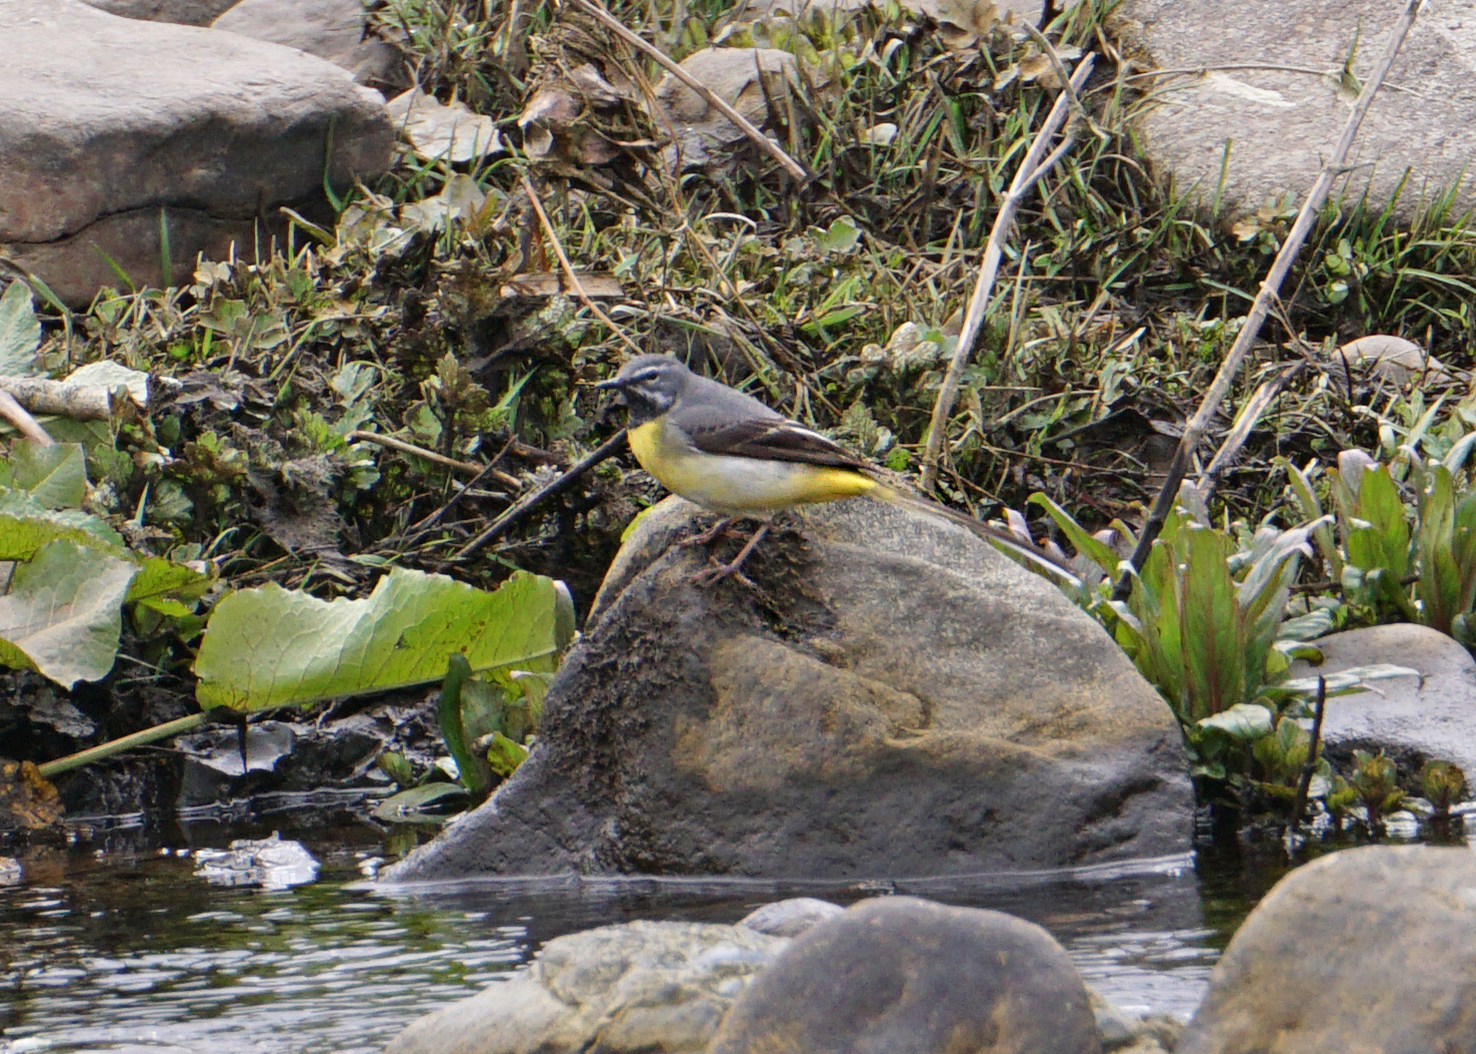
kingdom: Animalia
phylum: Chordata
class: Aves
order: Passeriformes
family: Motacillidae
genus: Motacilla
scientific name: Motacilla cinerea
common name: Grey wagtail
